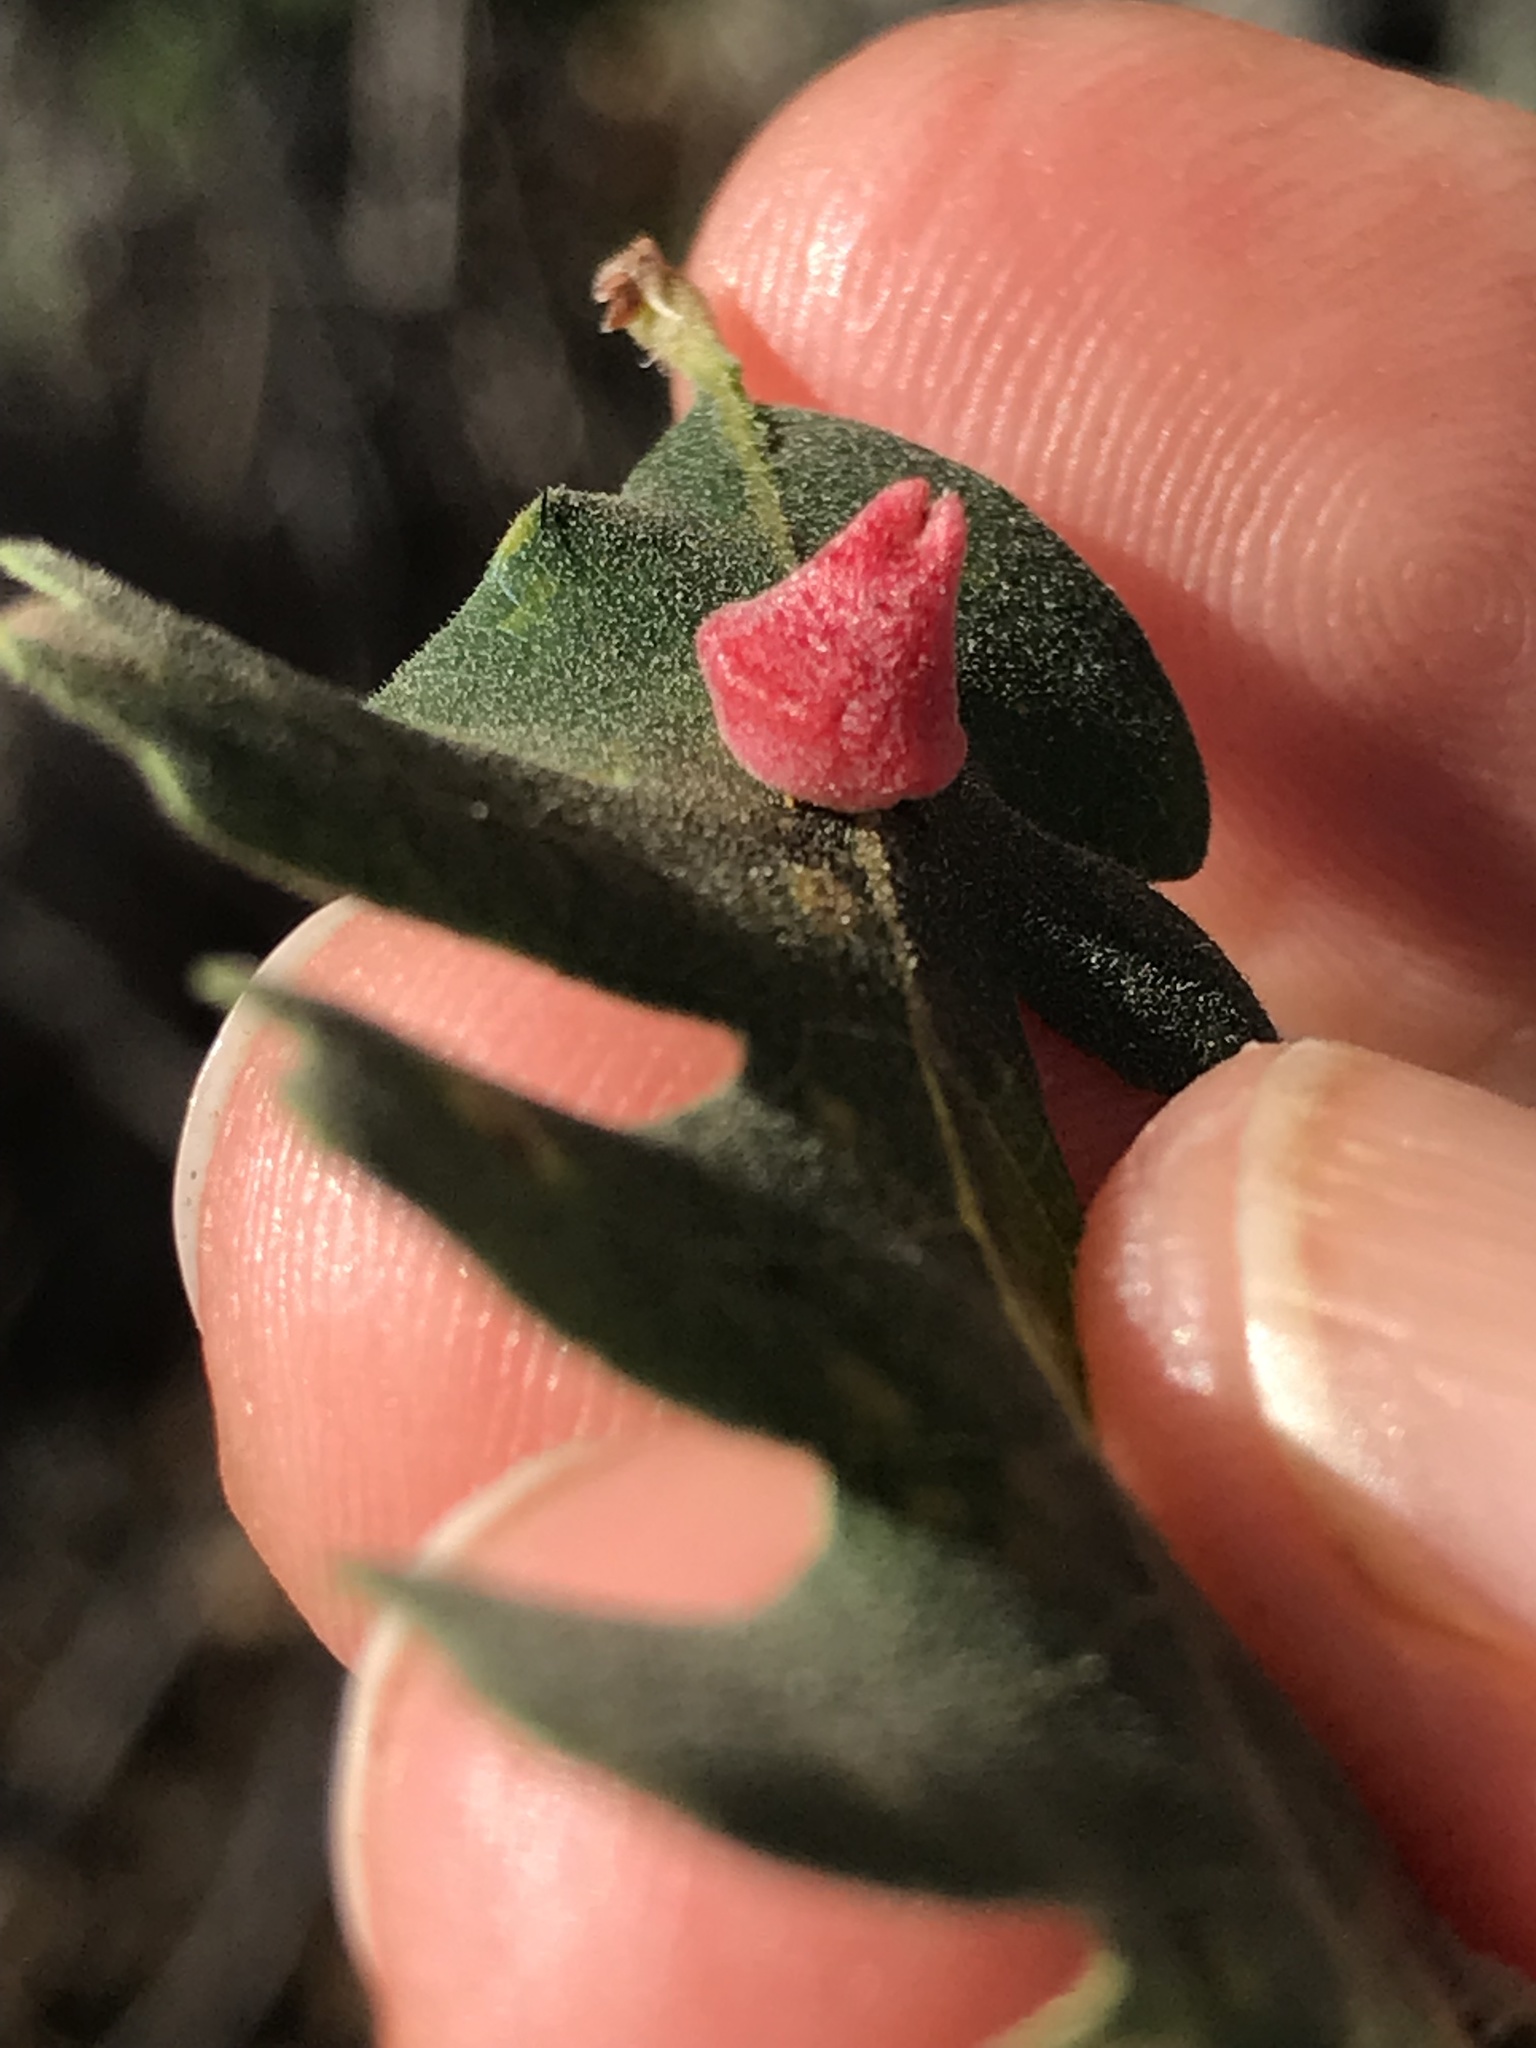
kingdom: Animalia
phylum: Arthropoda
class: Insecta
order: Hymenoptera
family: Cynipidae
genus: Andricus
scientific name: Andricus
